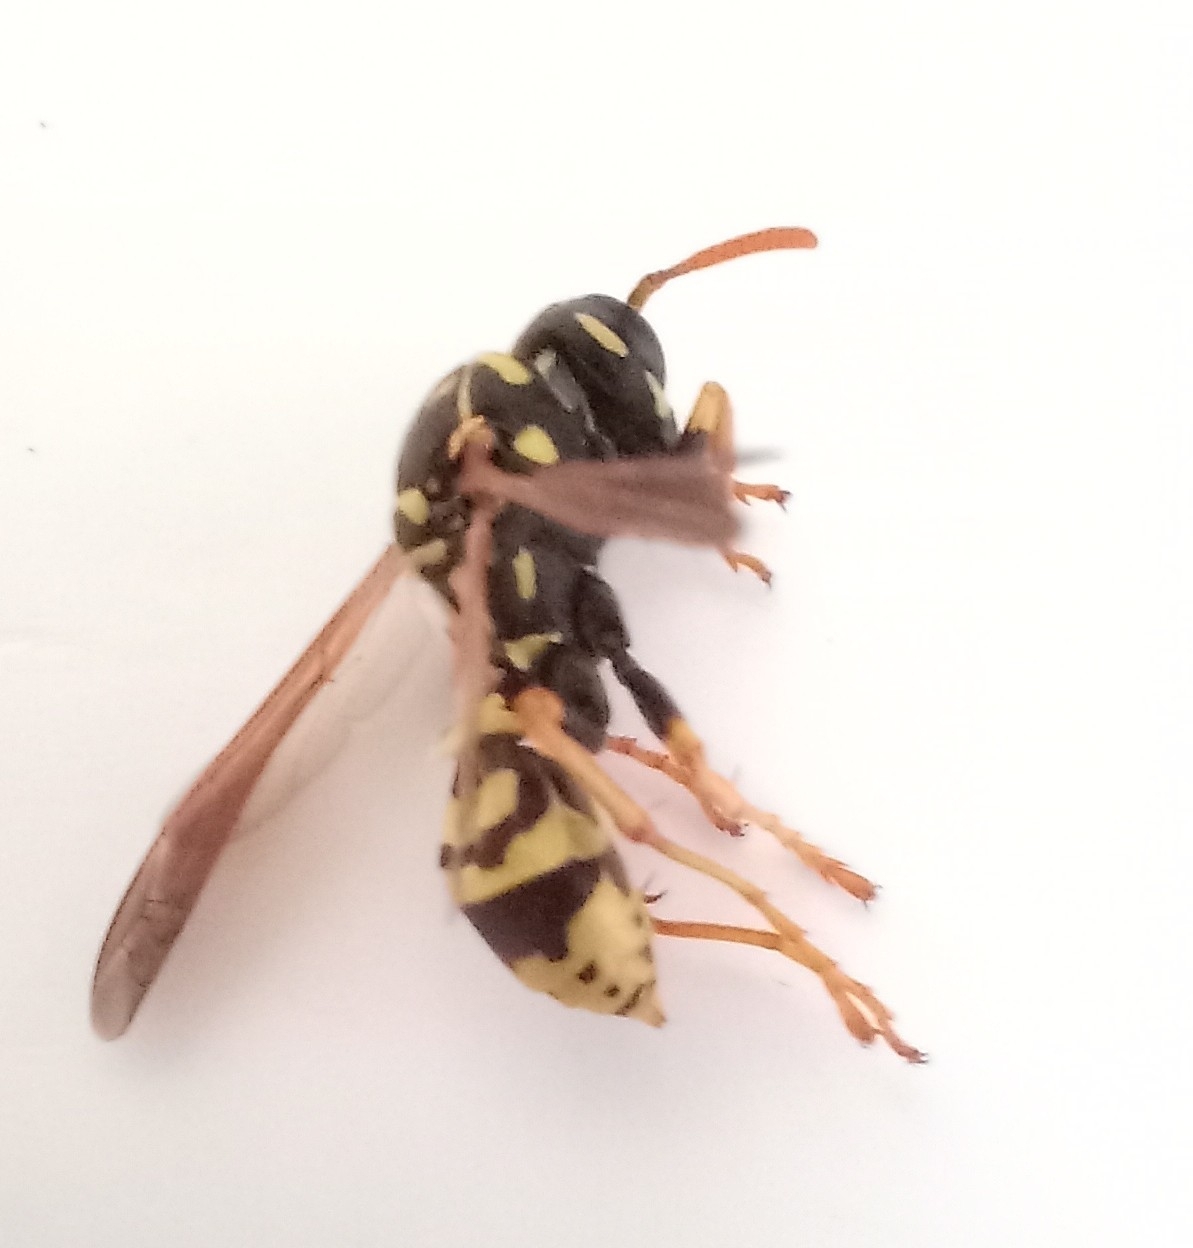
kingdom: Animalia
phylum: Arthropoda
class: Insecta
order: Hymenoptera
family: Eumenidae
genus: Polistes
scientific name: Polistes dominula
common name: Paper wasp
